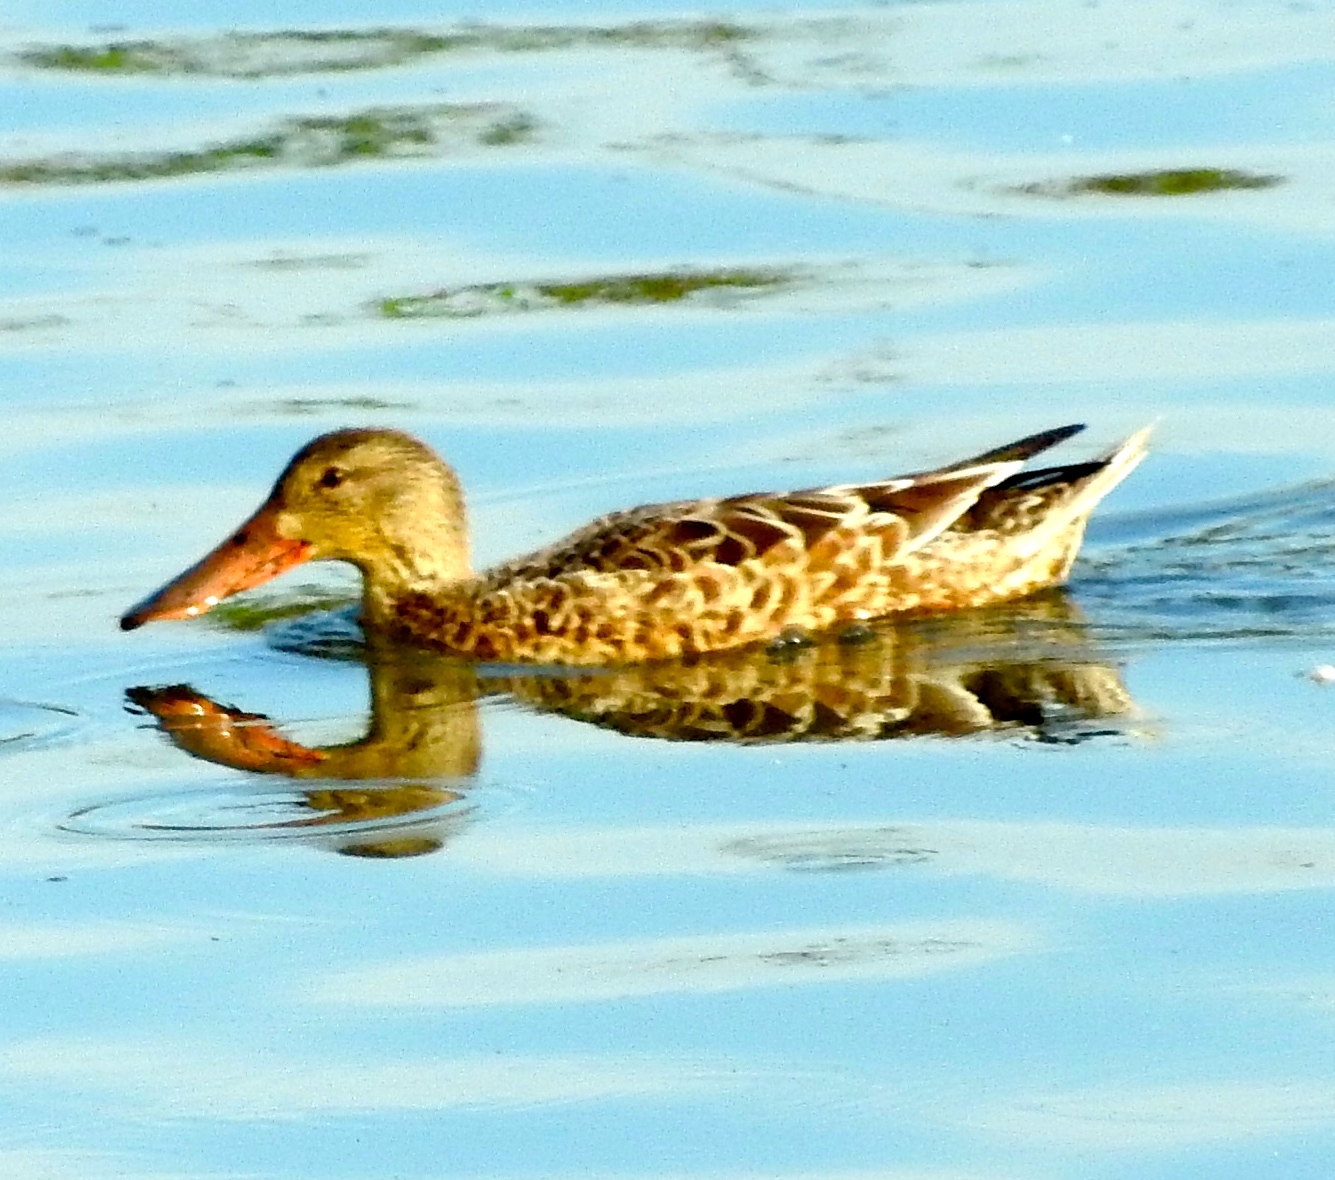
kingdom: Animalia
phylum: Chordata
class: Aves
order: Anseriformes
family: Anatidae
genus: Spatula
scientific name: Spatula clypeata
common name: Northern shoveler
